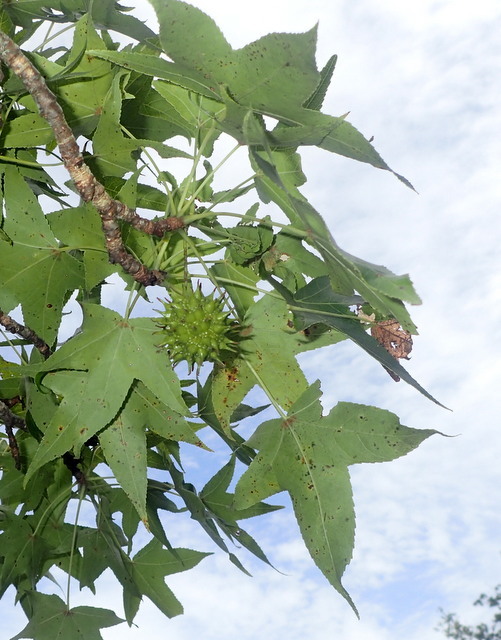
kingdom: Plantae
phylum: Tracheophyta
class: Magnoliopsida
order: Saxifragales
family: Altingiaceae
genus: Liquidambar
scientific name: Liquidambar styraciflua
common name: Sweet gum
